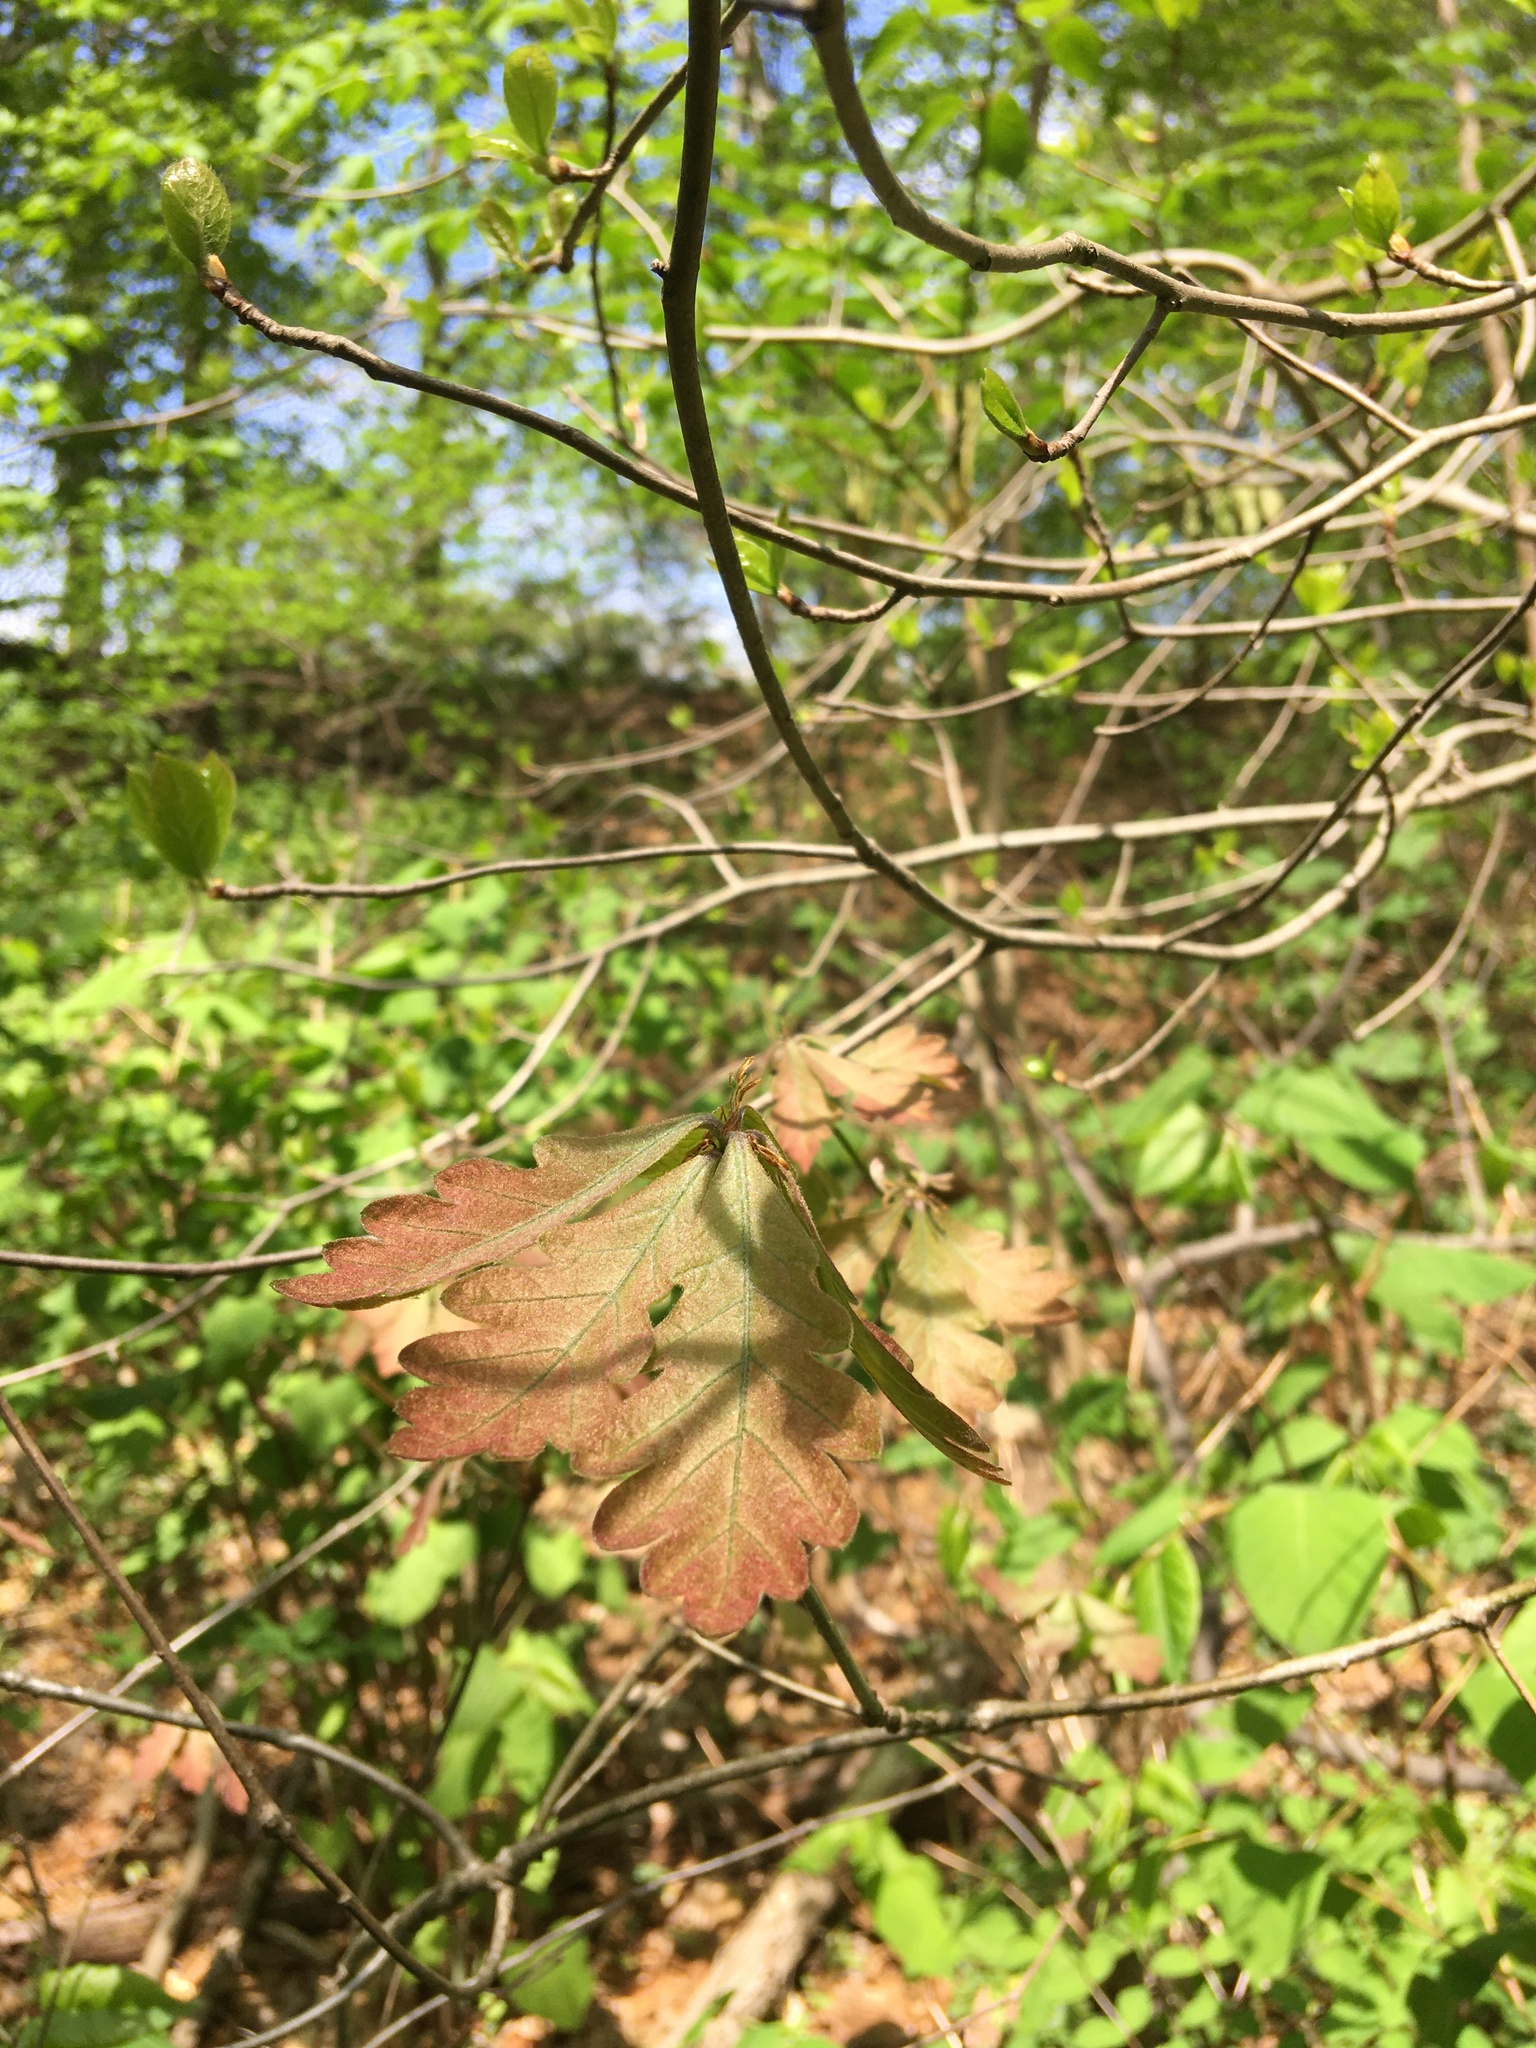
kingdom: Plantae
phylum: Tracheophyta
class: Magnoliopsida
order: Fagales
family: Fagaceae
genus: Quercus
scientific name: Quercus alba
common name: White oak
